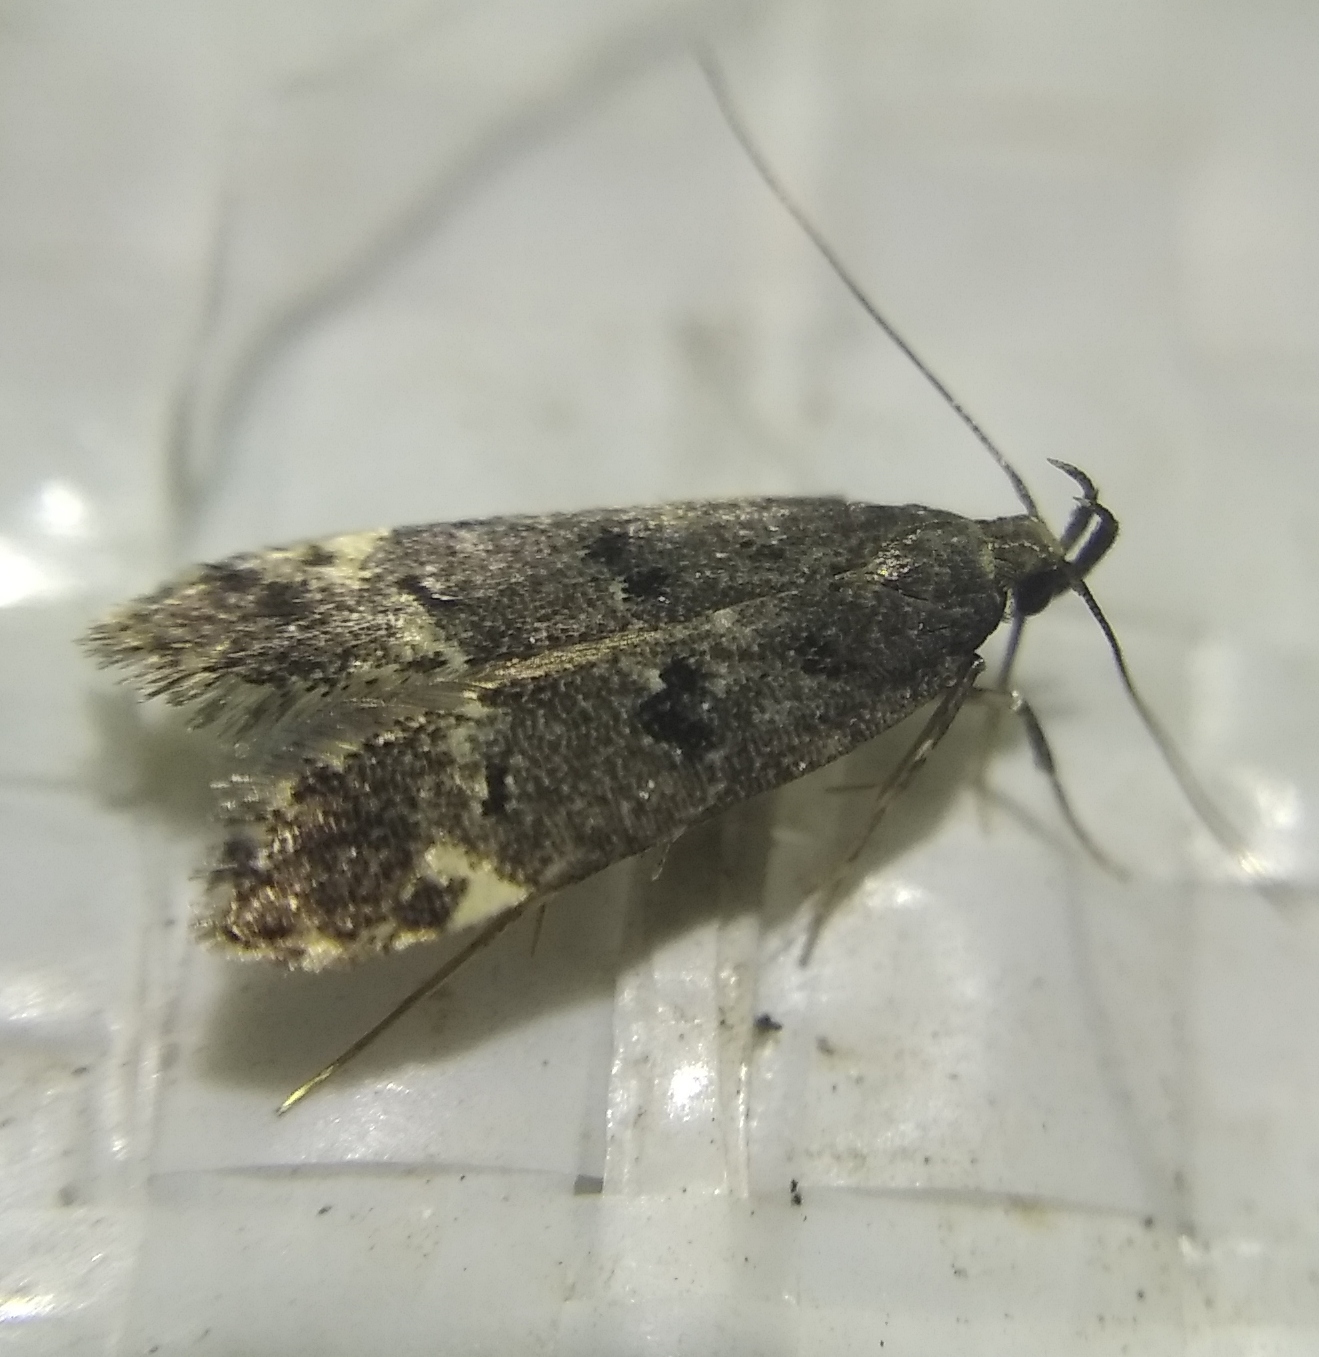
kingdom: Animalia
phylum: Arthropoda
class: Insecta
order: Lepidoptera
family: Gelechiidae
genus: Acanthophila
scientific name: Acanthophila alacella
